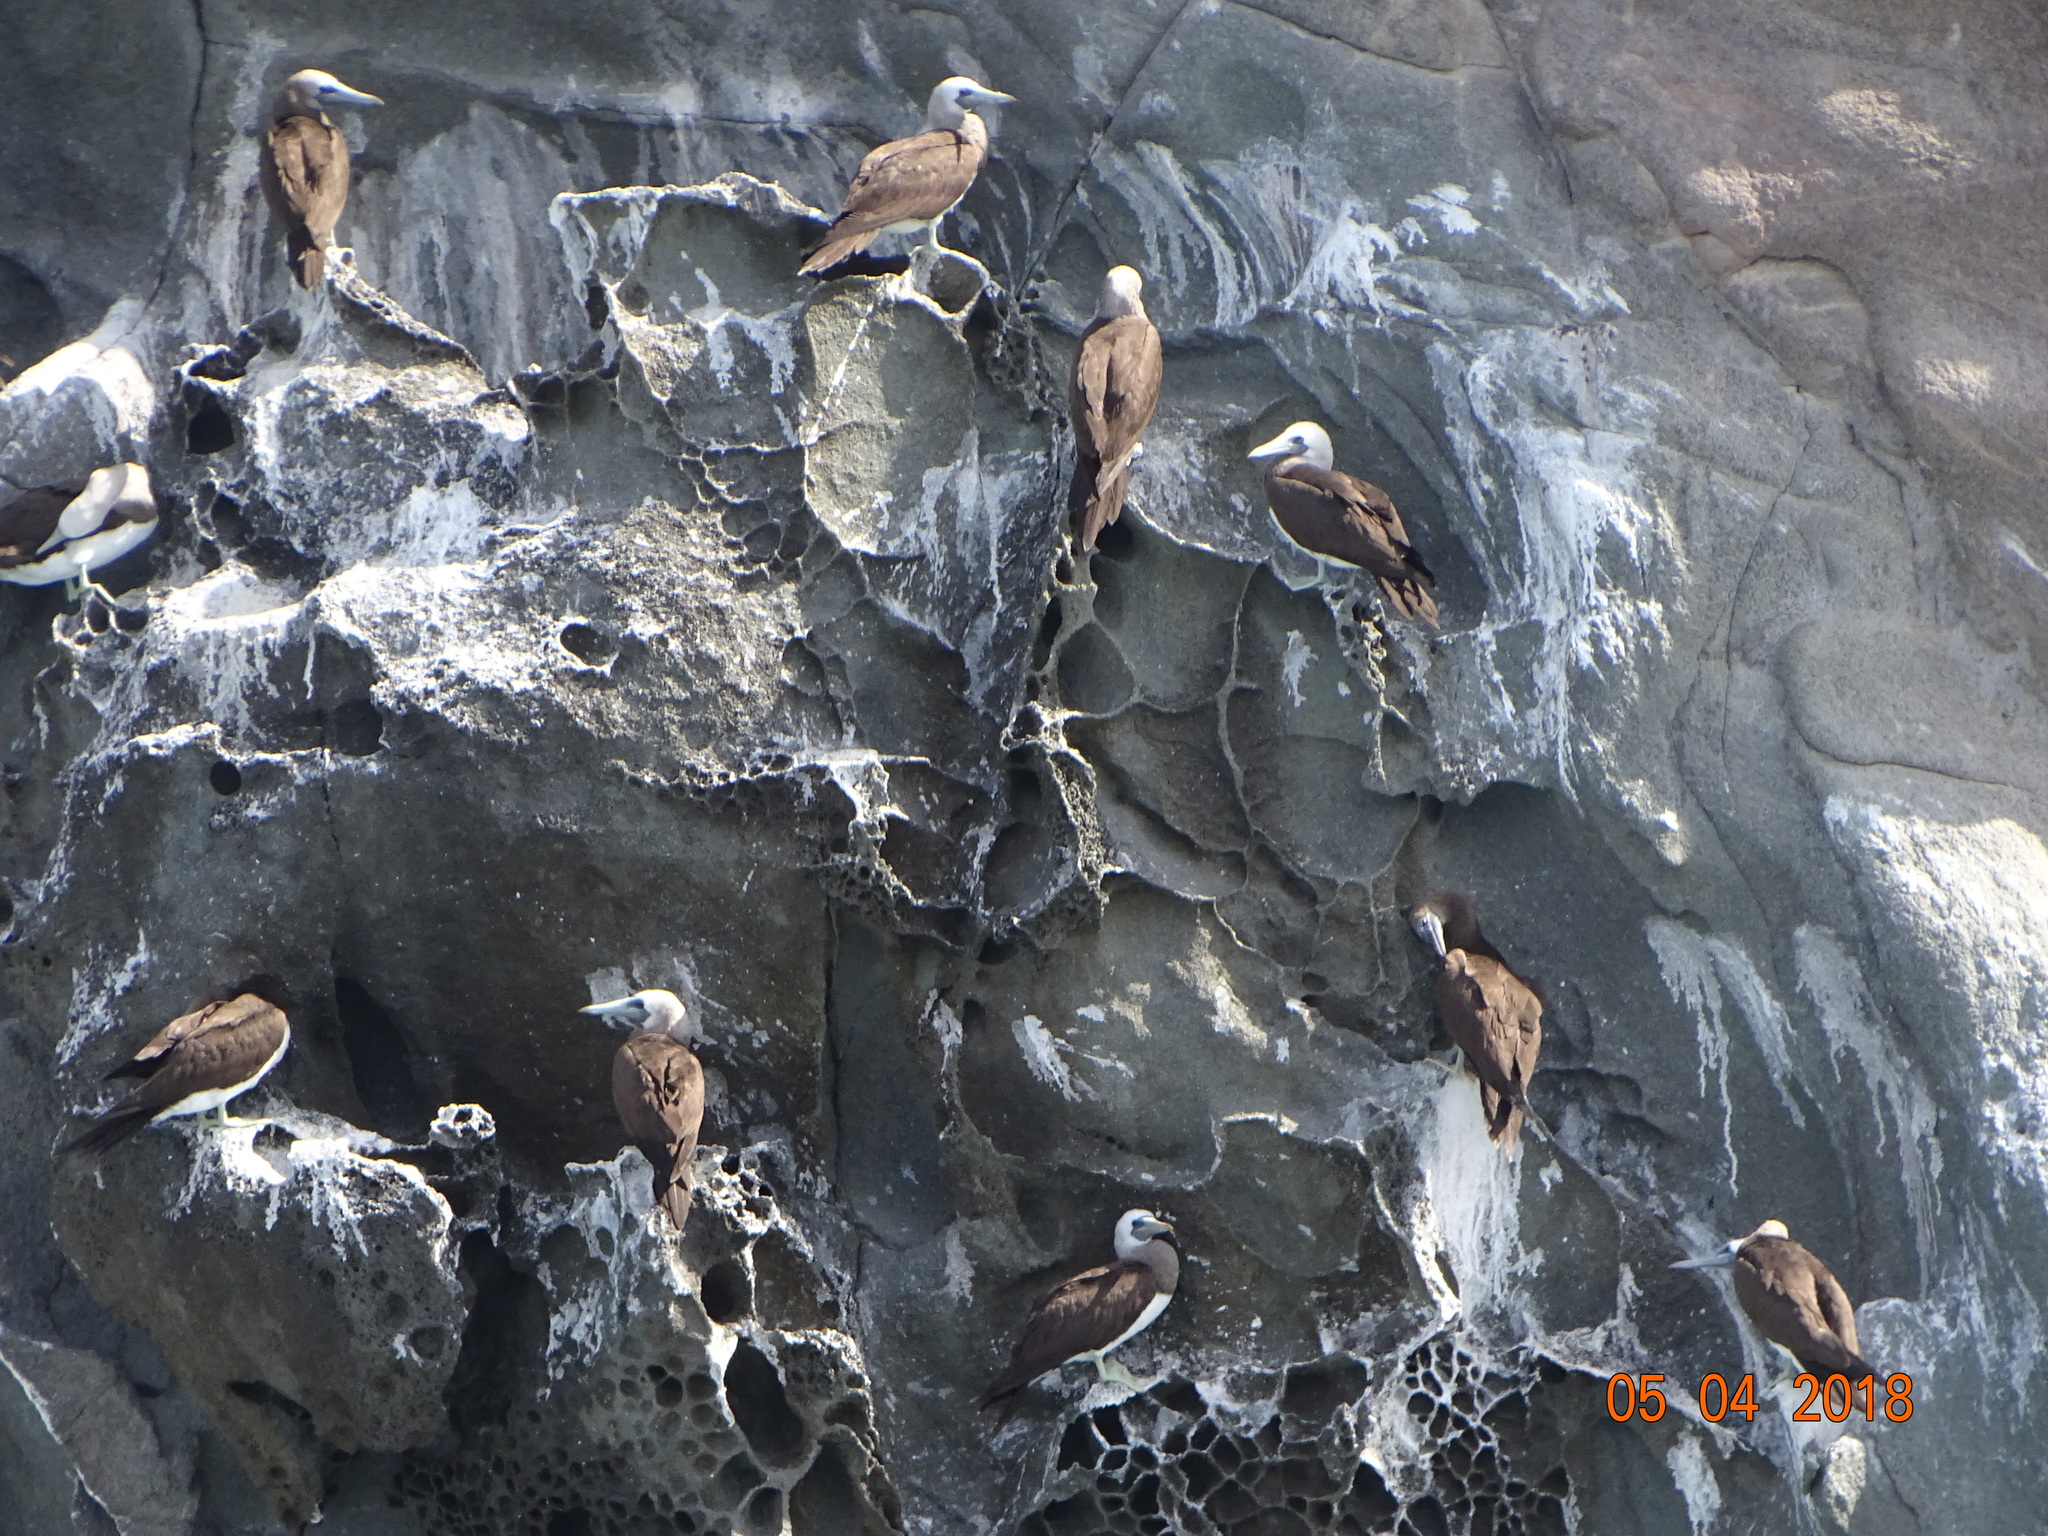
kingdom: Animalia
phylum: Chordata
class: Aves
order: Suliformes
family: Sulidae
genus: Sula
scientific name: Sula leucogaster
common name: Brown booby
